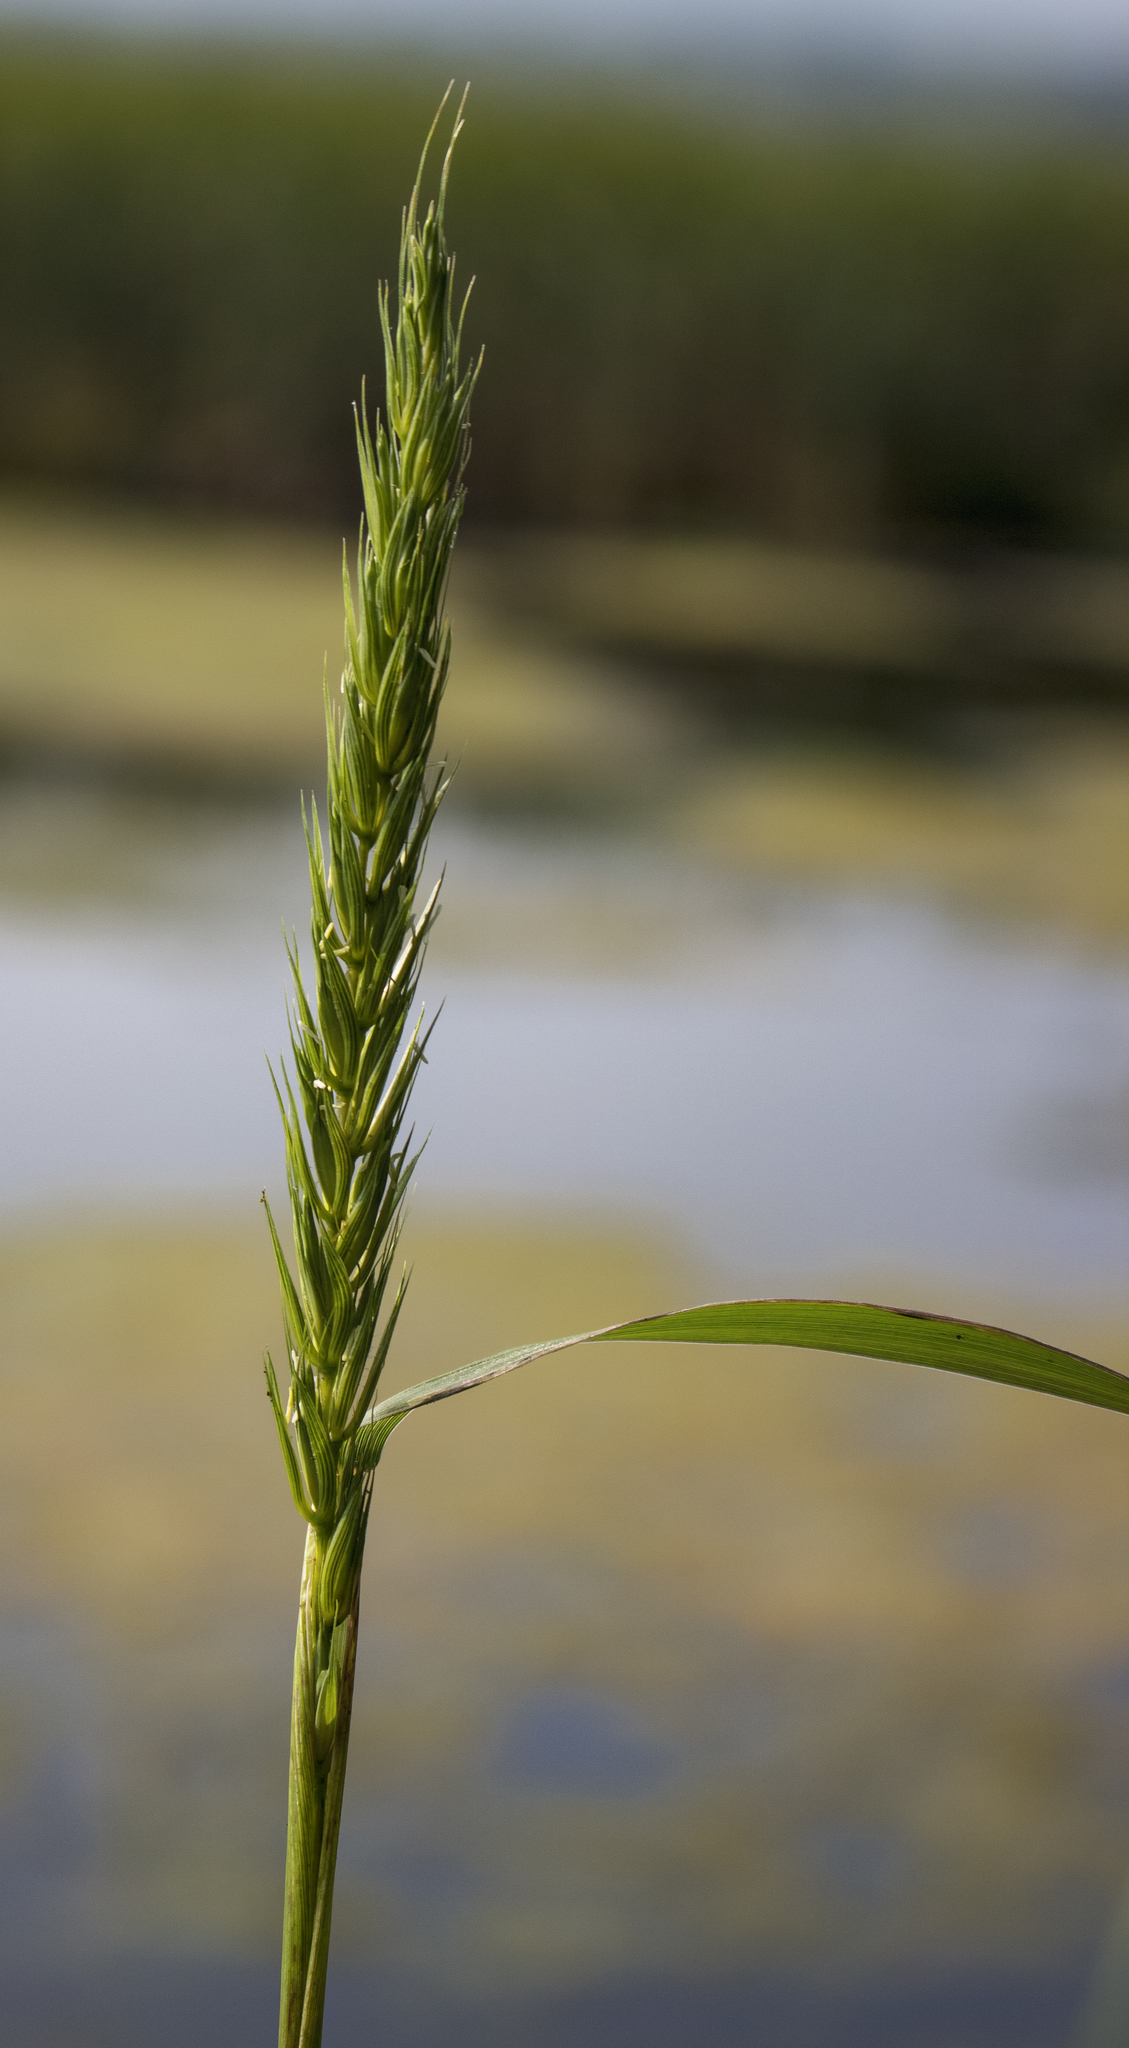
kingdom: Plantae
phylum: Tracheophyta
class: Liliopsida
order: Poales
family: Poaceae
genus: Elymus
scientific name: Elymus virginicus
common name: Common eastern wildrye
